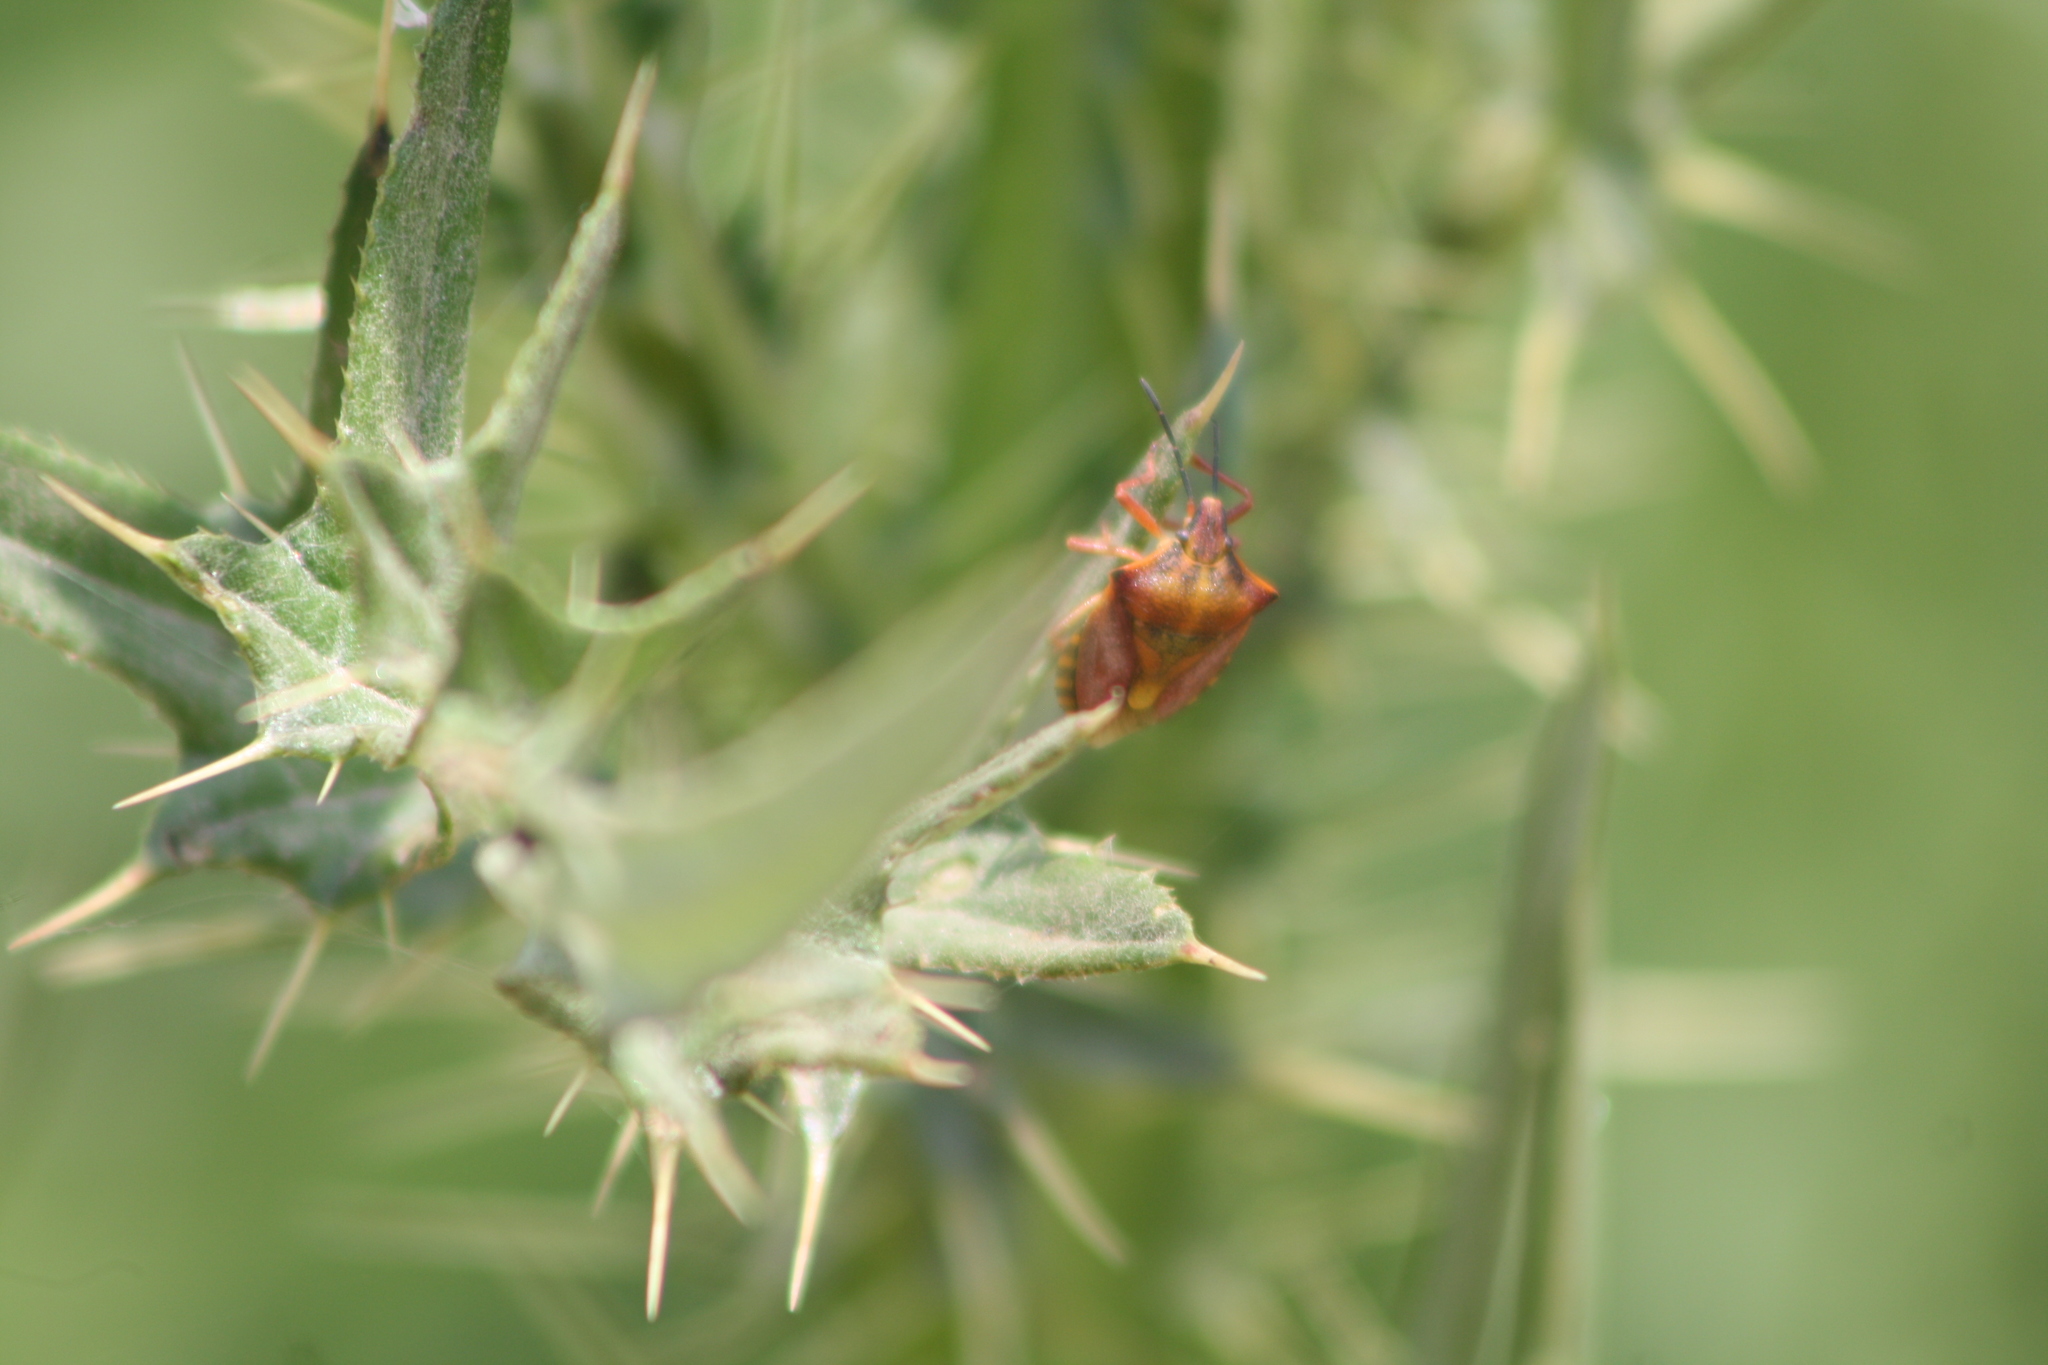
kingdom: Animalia
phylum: Arthropoda
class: Insecta
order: Hemiptera
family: Pentatomidae
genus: Carpocoris
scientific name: Carpocoris mediterraneus
